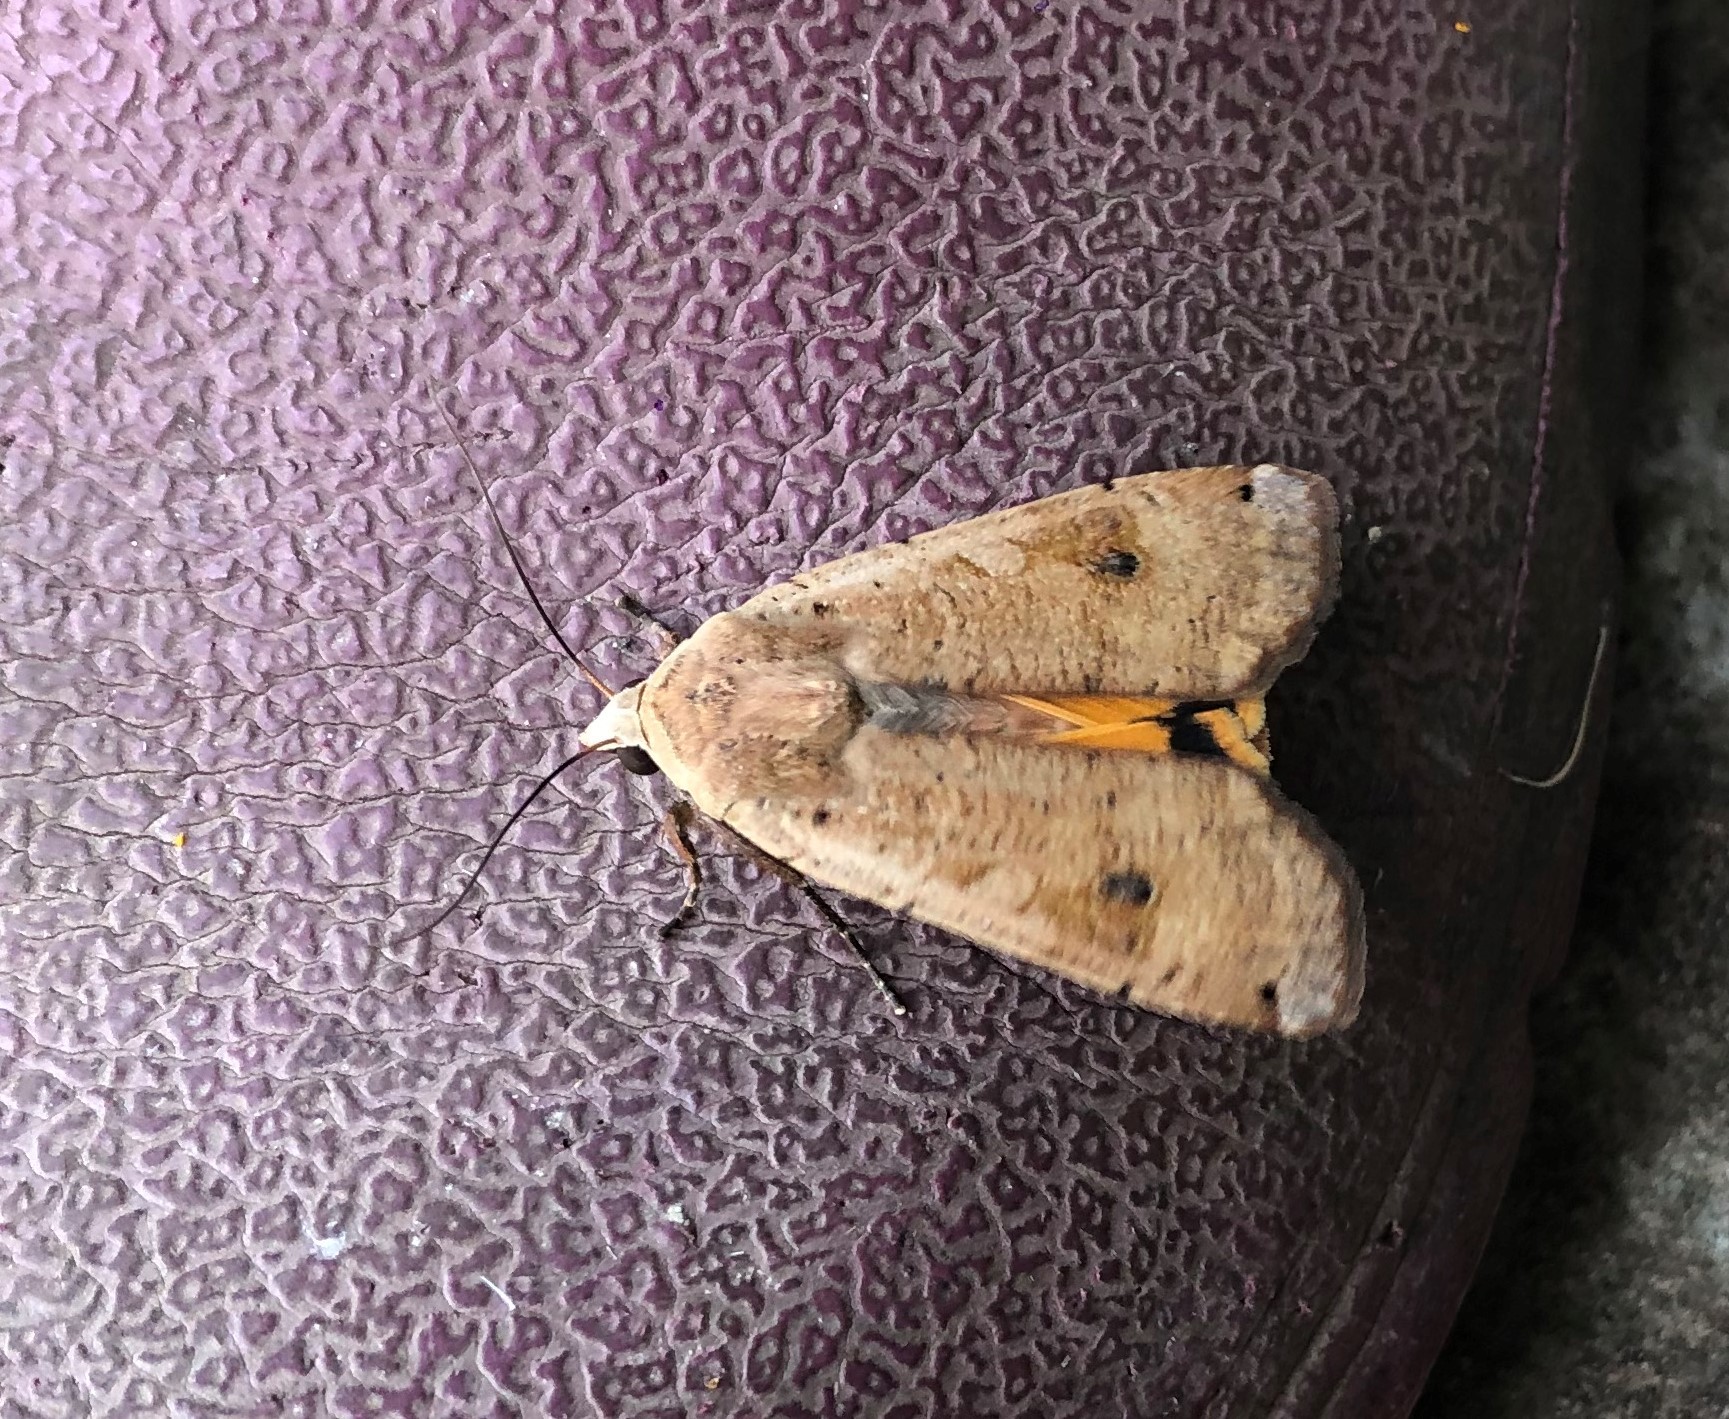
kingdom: Animalia
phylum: Arthropoda
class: Insecta
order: Lepidoptera
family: Noctuidae
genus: Noctua
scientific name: Noctua pronuba
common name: Large yellow underwing
